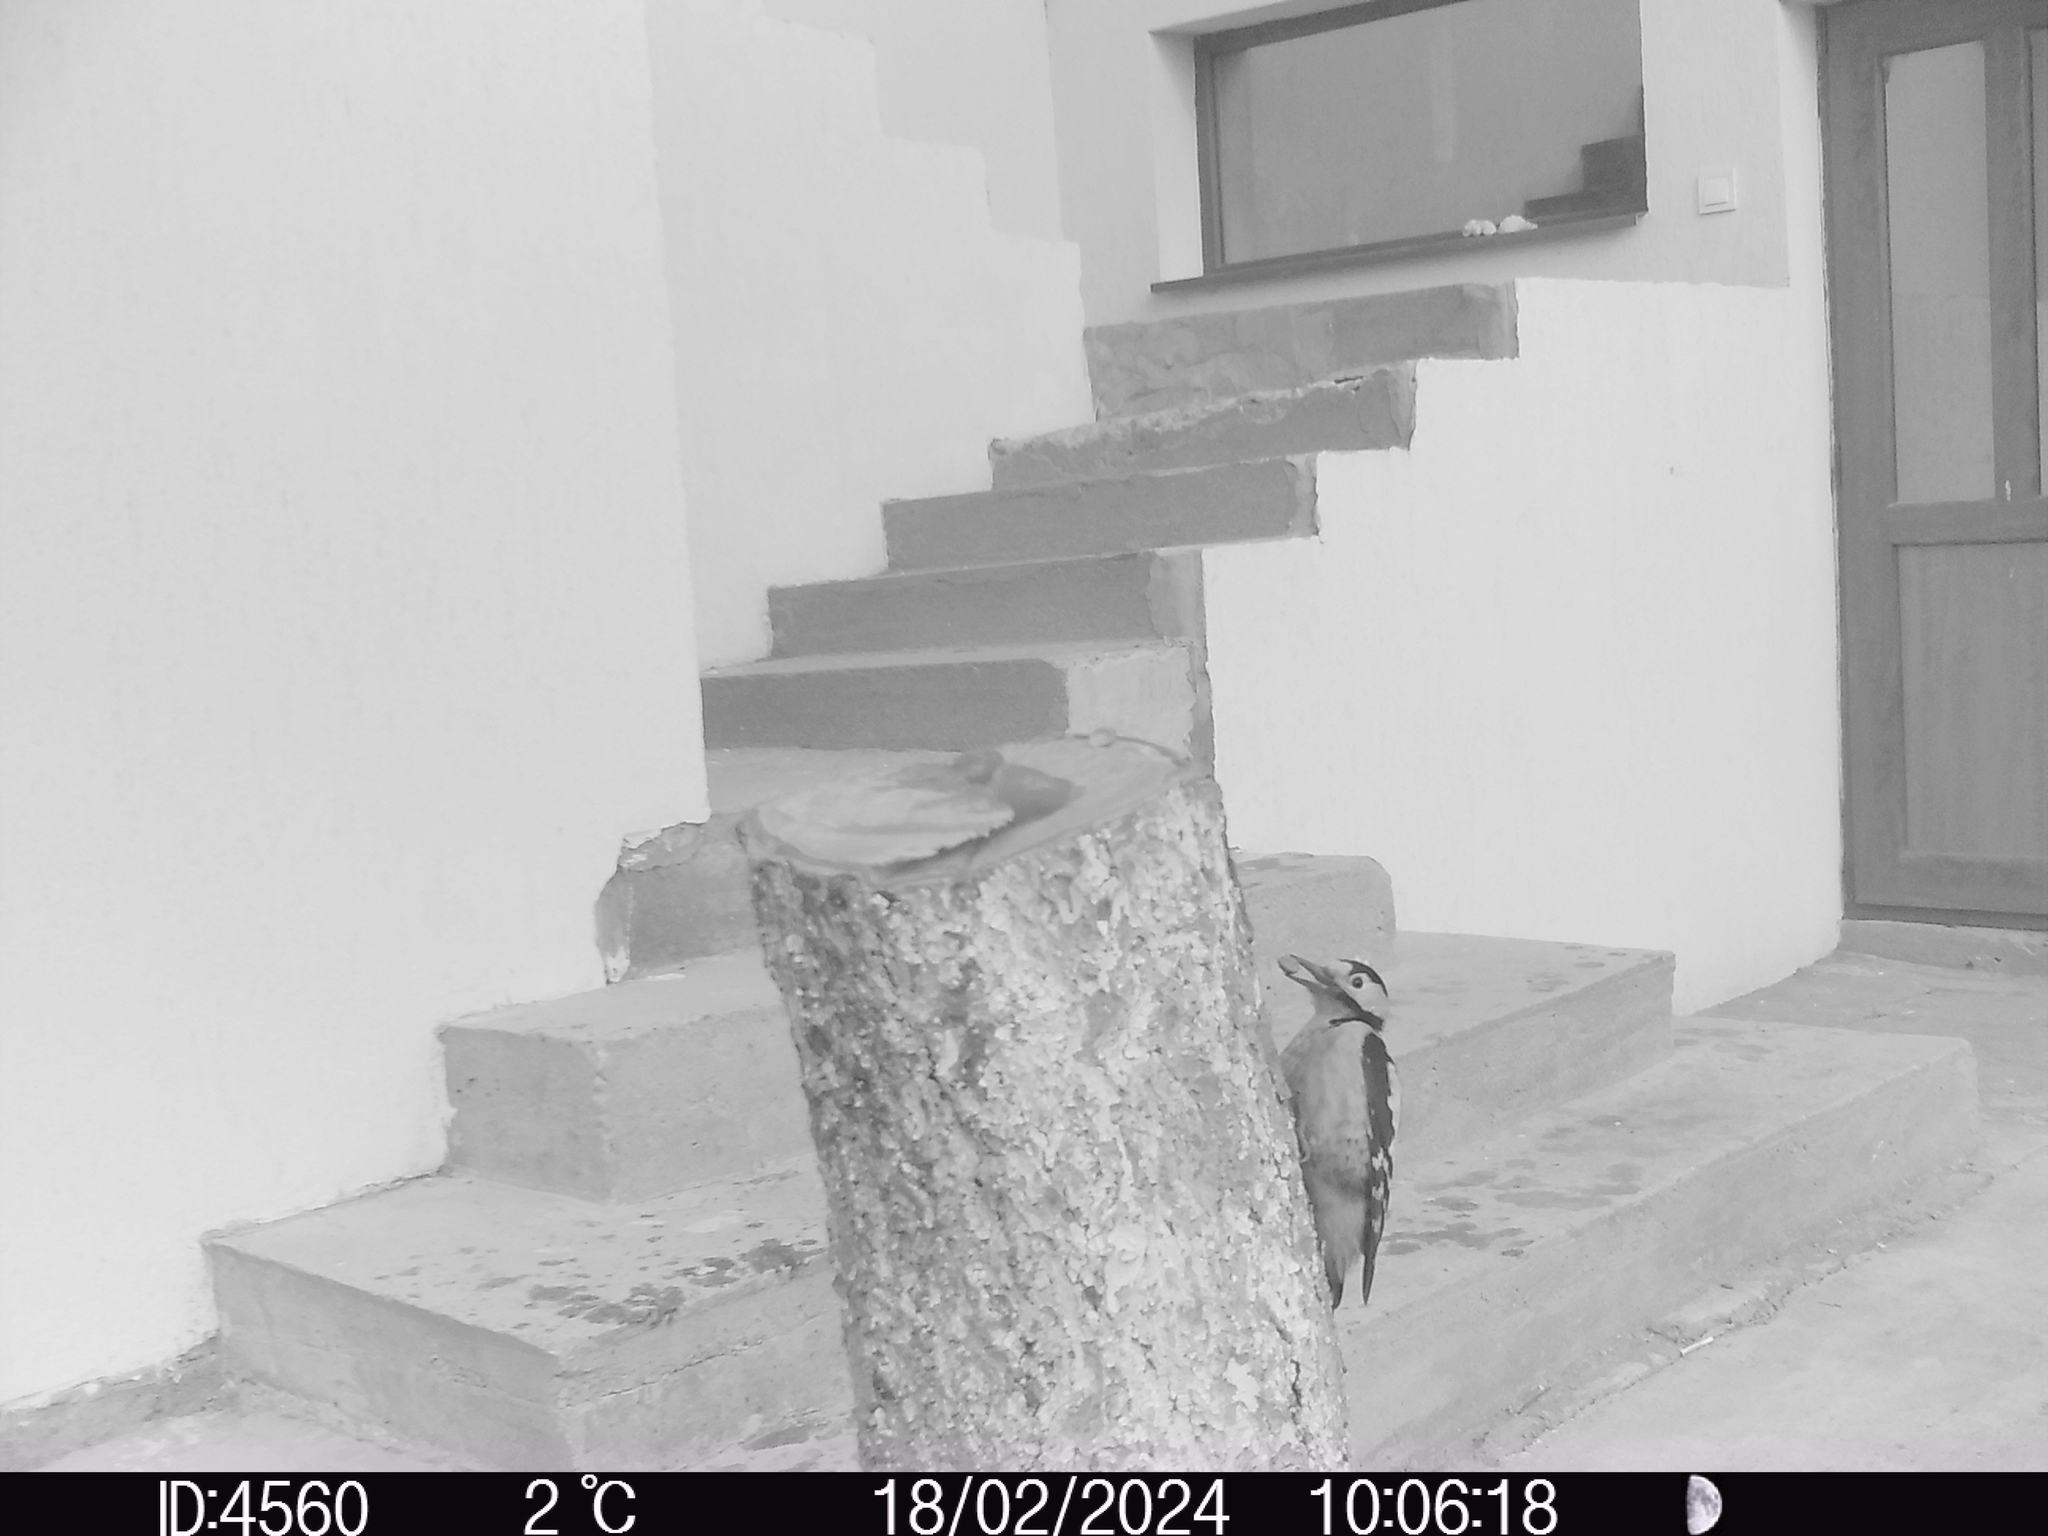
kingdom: Animalia
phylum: Chordata
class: Aves
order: Piciformes
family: Picidae
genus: Dendrocopos
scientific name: Dendrocopos syriacus
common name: Syrian woodpecker
